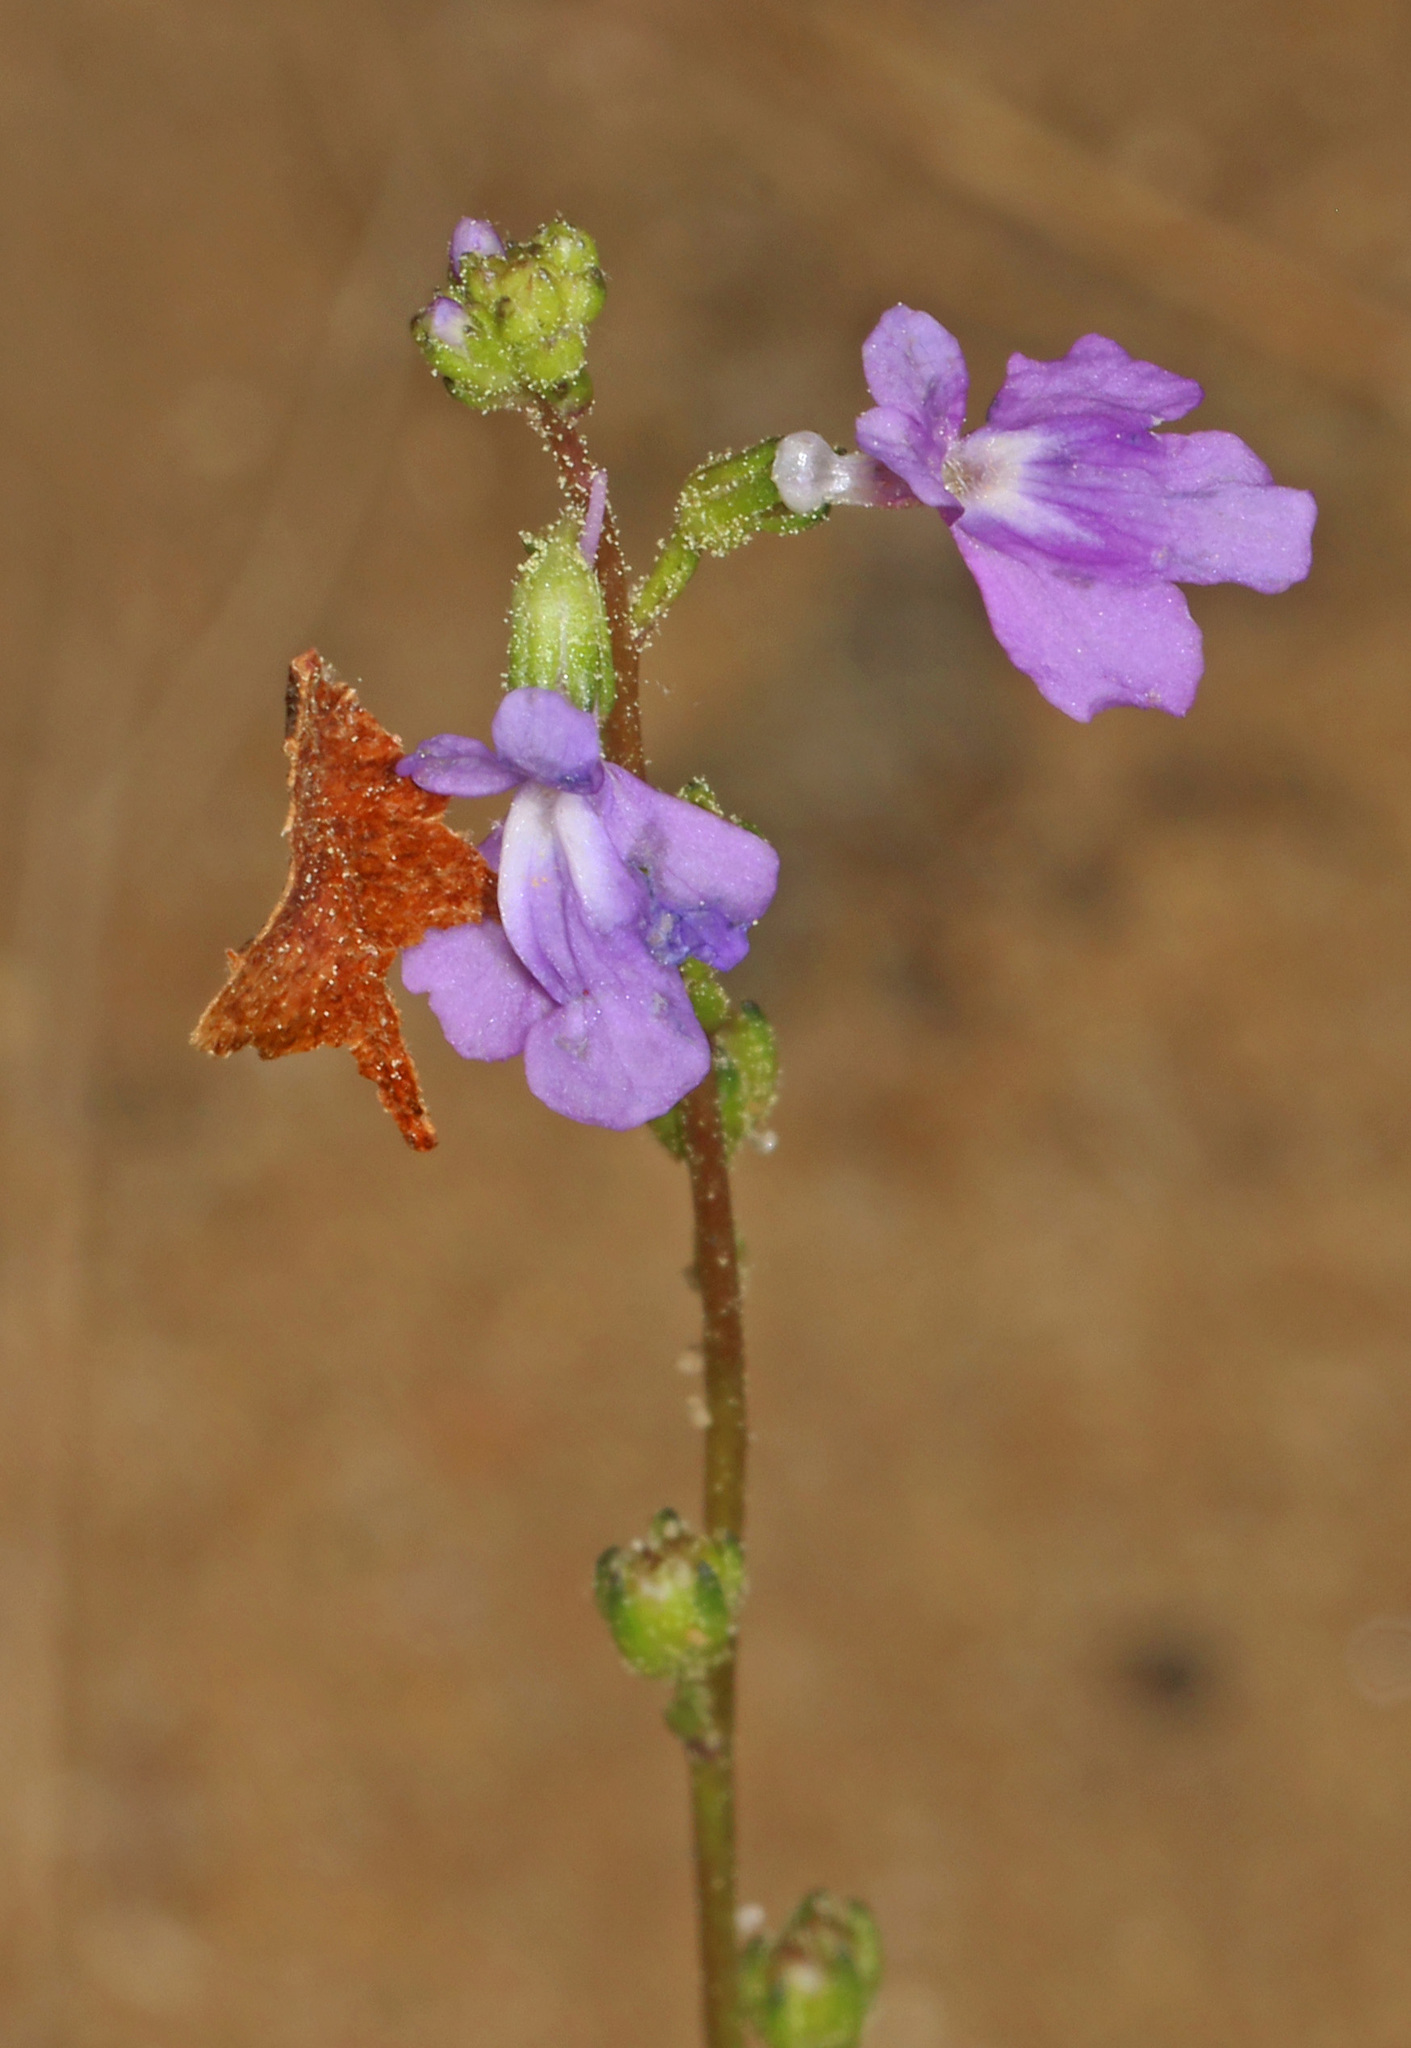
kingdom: Plantae
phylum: Tracheophyta
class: Magnoliopsida
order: Lamiales
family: Plantaginaceae
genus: Nuttallanthus
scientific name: Nuttallanthus canadensis
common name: Blue toadflax
